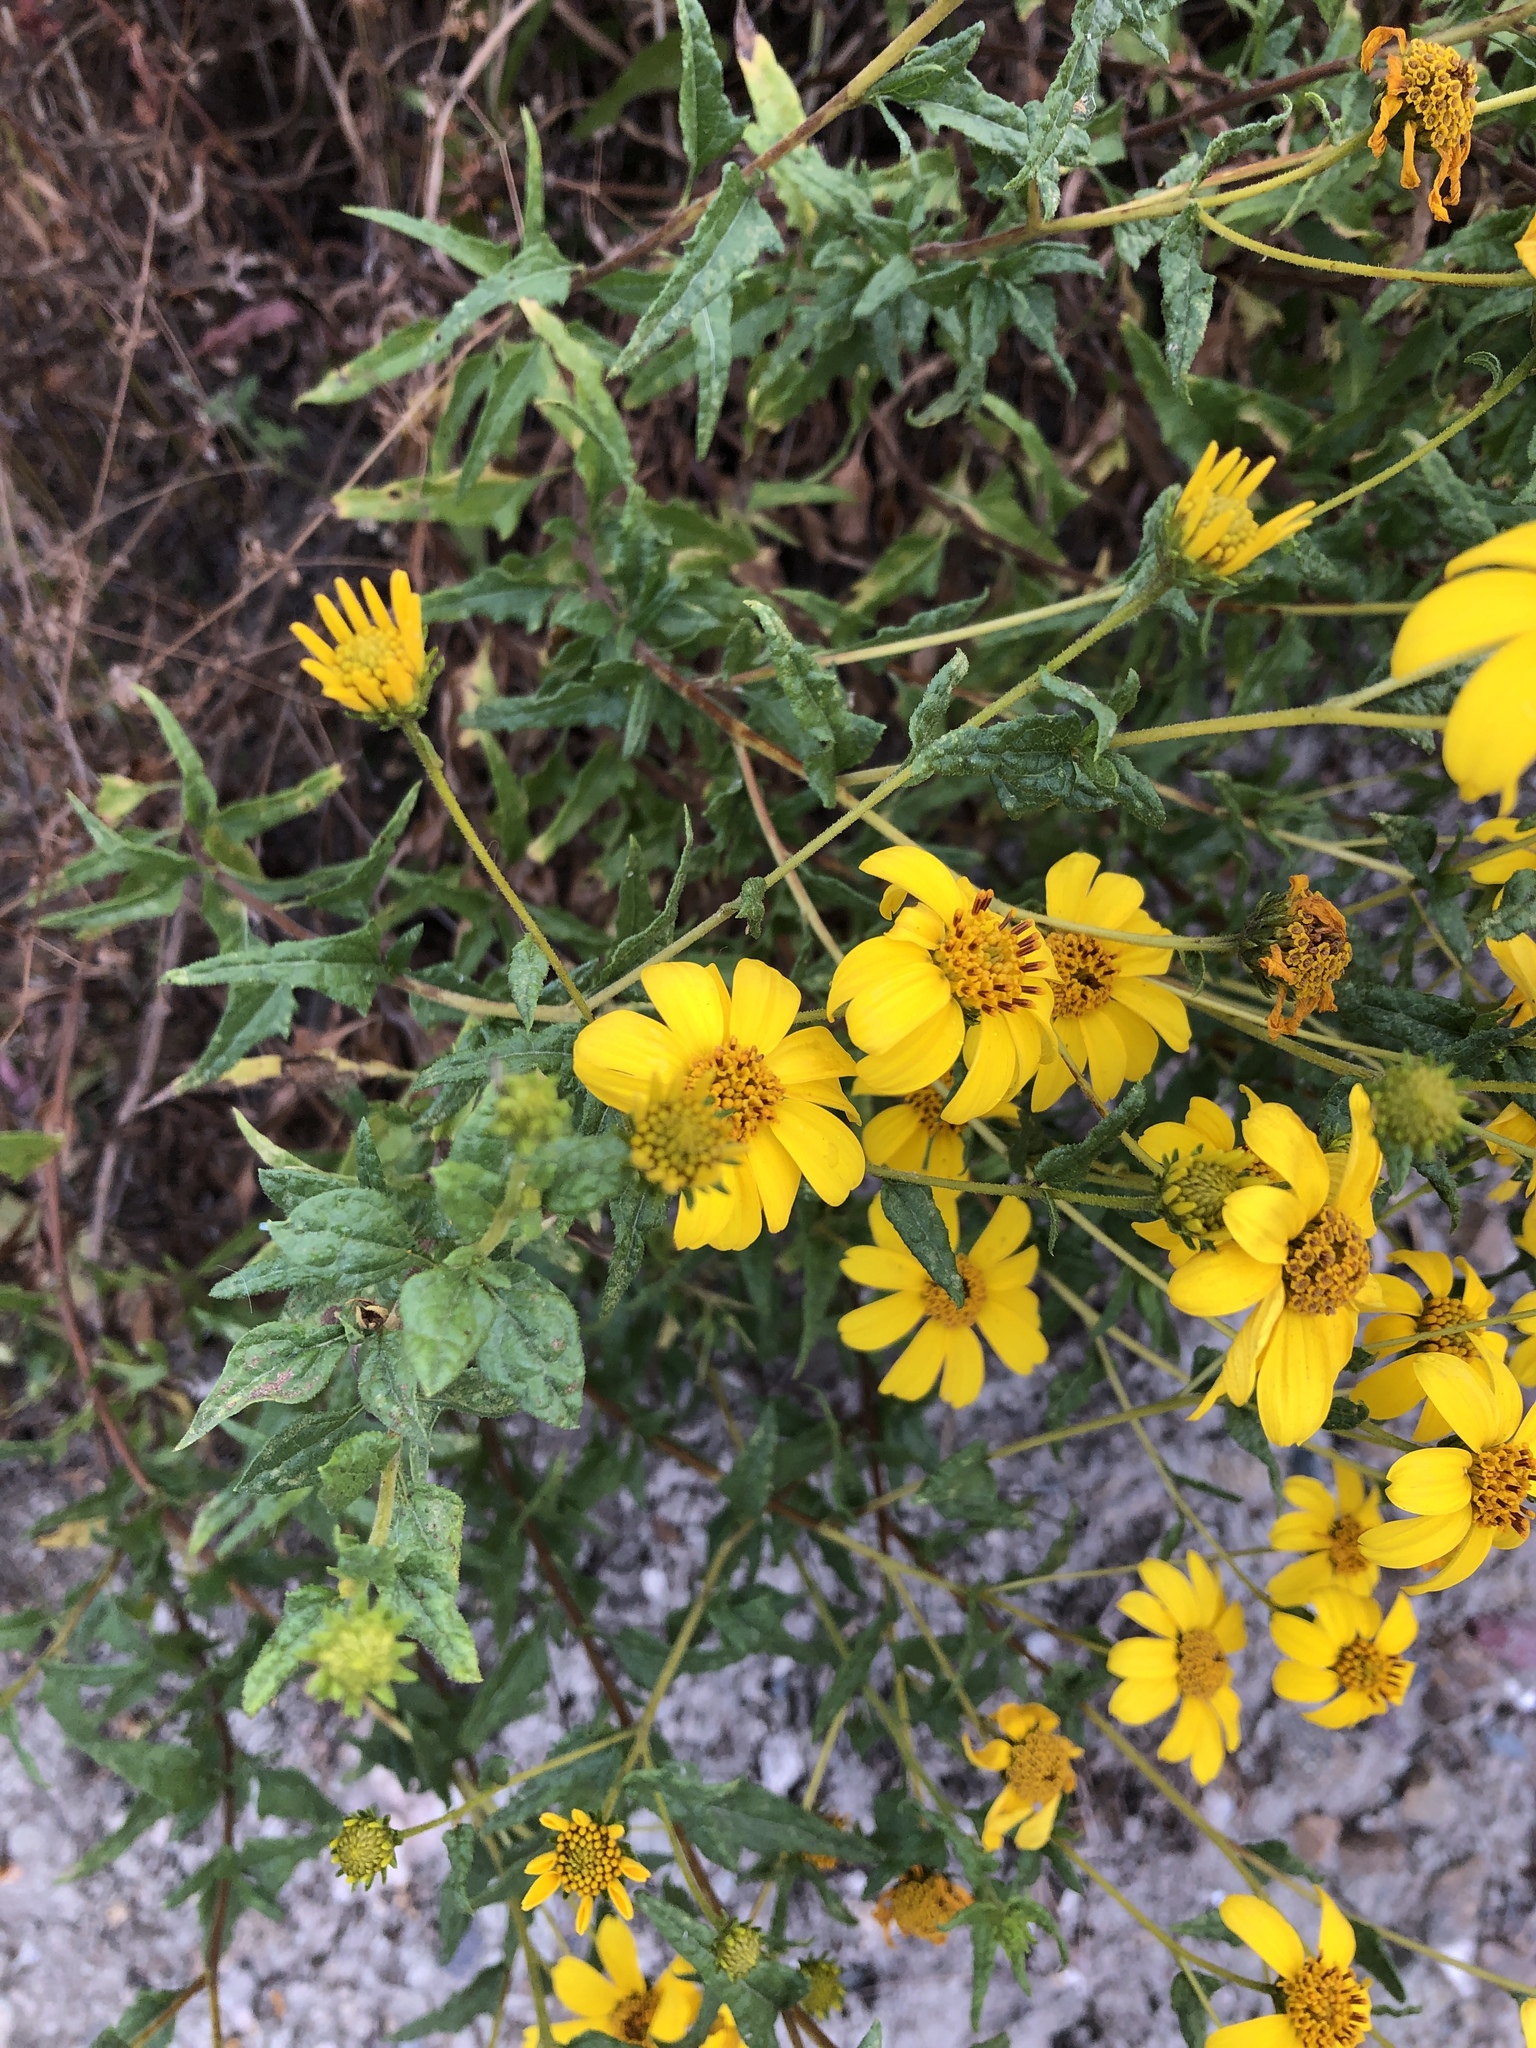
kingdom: Plantae
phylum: Tracheophyta
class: Magnoliopsida
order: Asterales
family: Asteraceae
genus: Bahiopsis
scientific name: Bahiopsis laciniata
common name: San diego county viguiera
